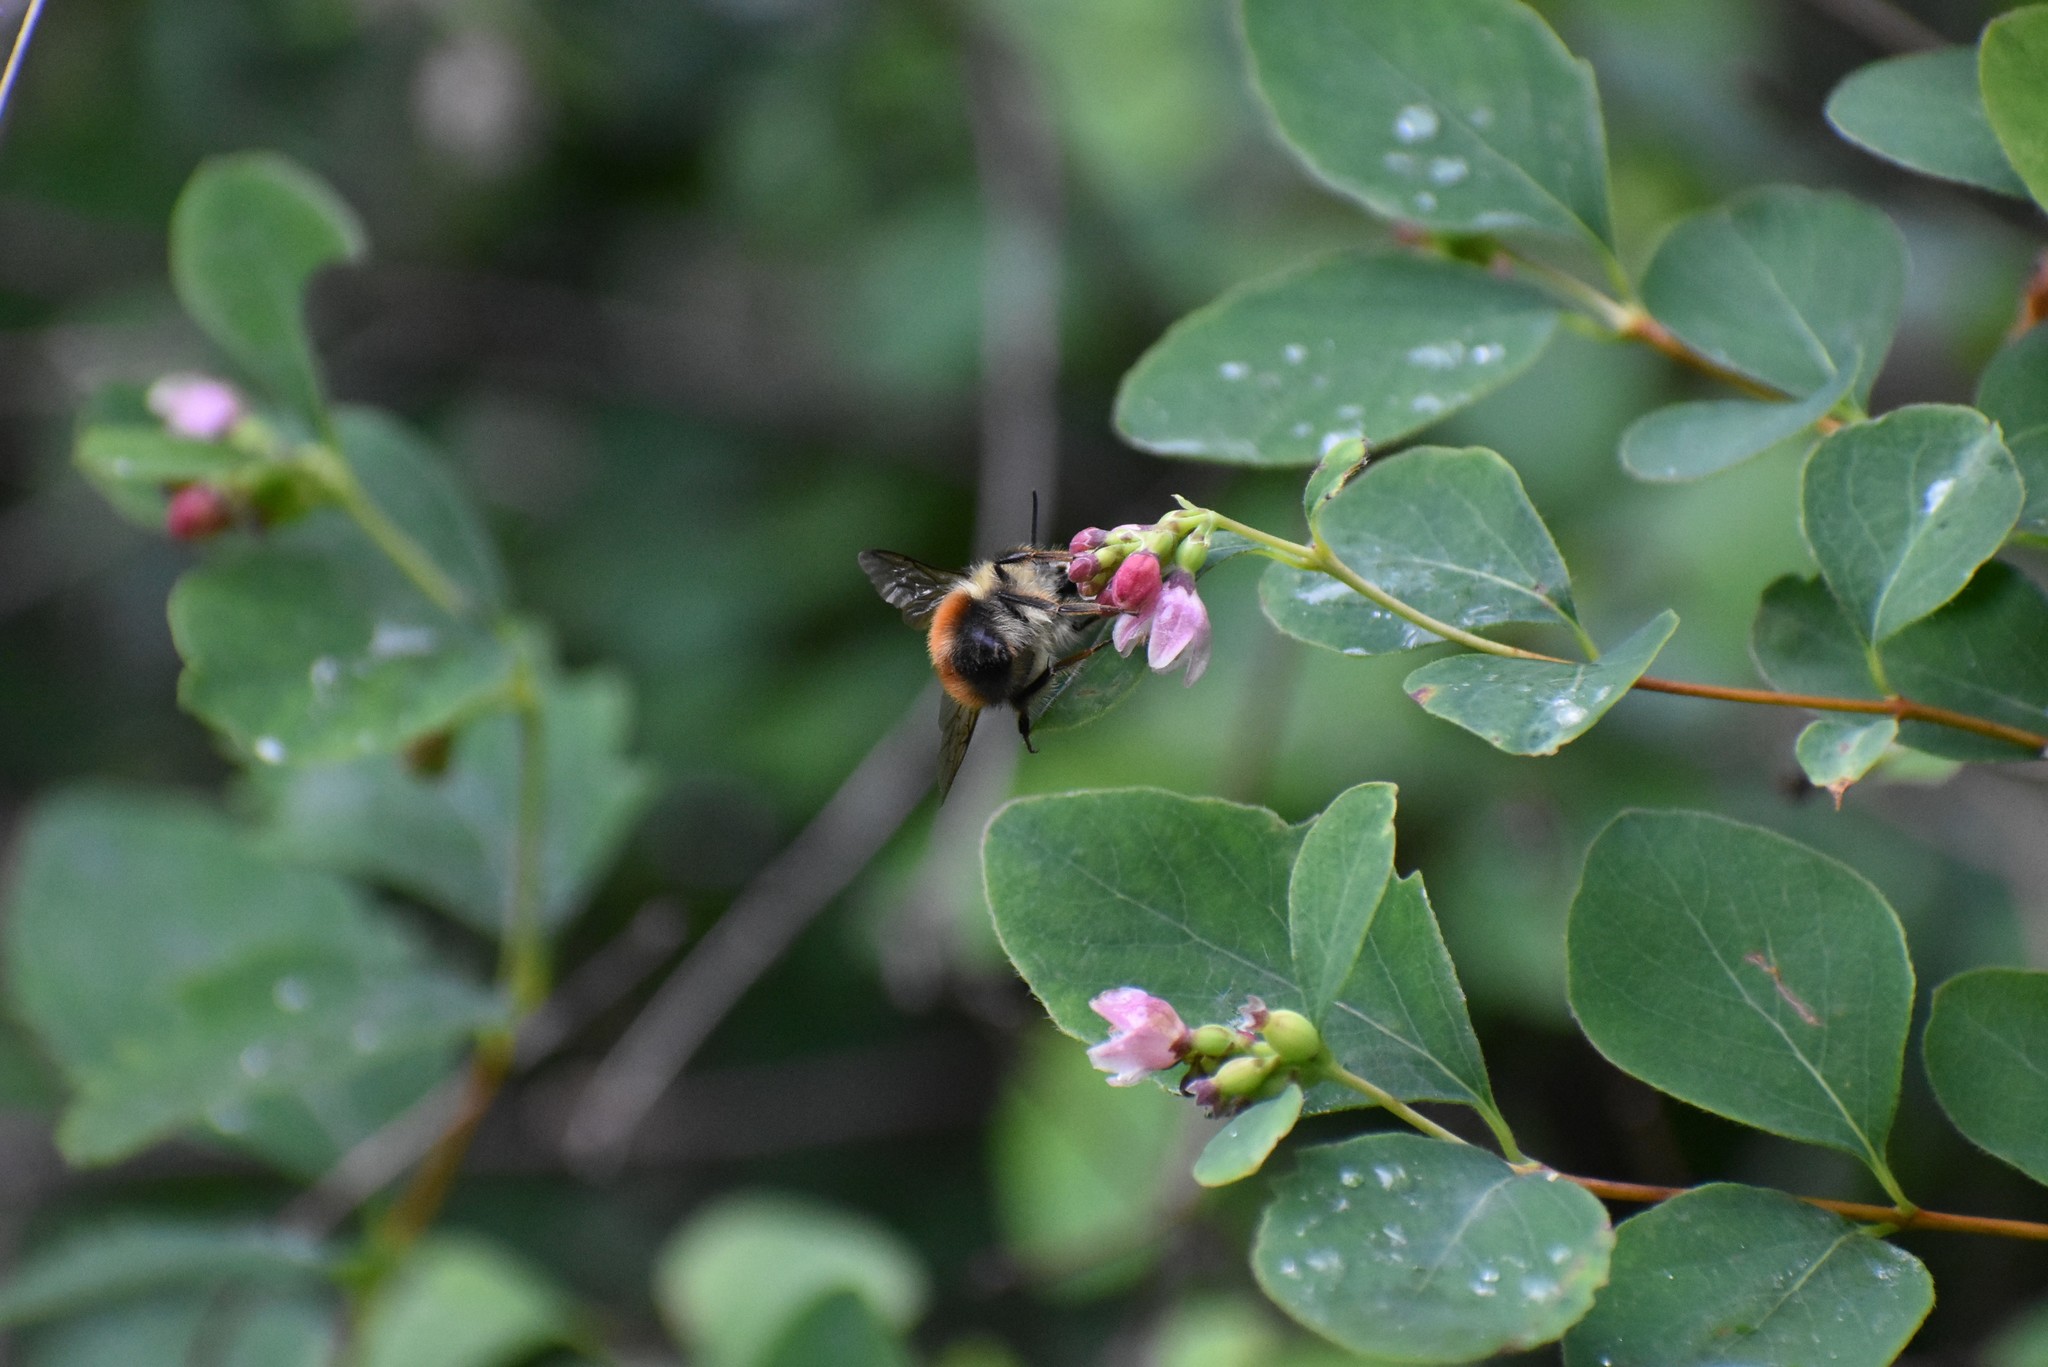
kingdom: Animalia
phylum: Arthropoda
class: Insecta
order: Hymenoptera
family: Apidae
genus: Bombus
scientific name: Bombus melanopygus
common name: Black tail bumble bee
